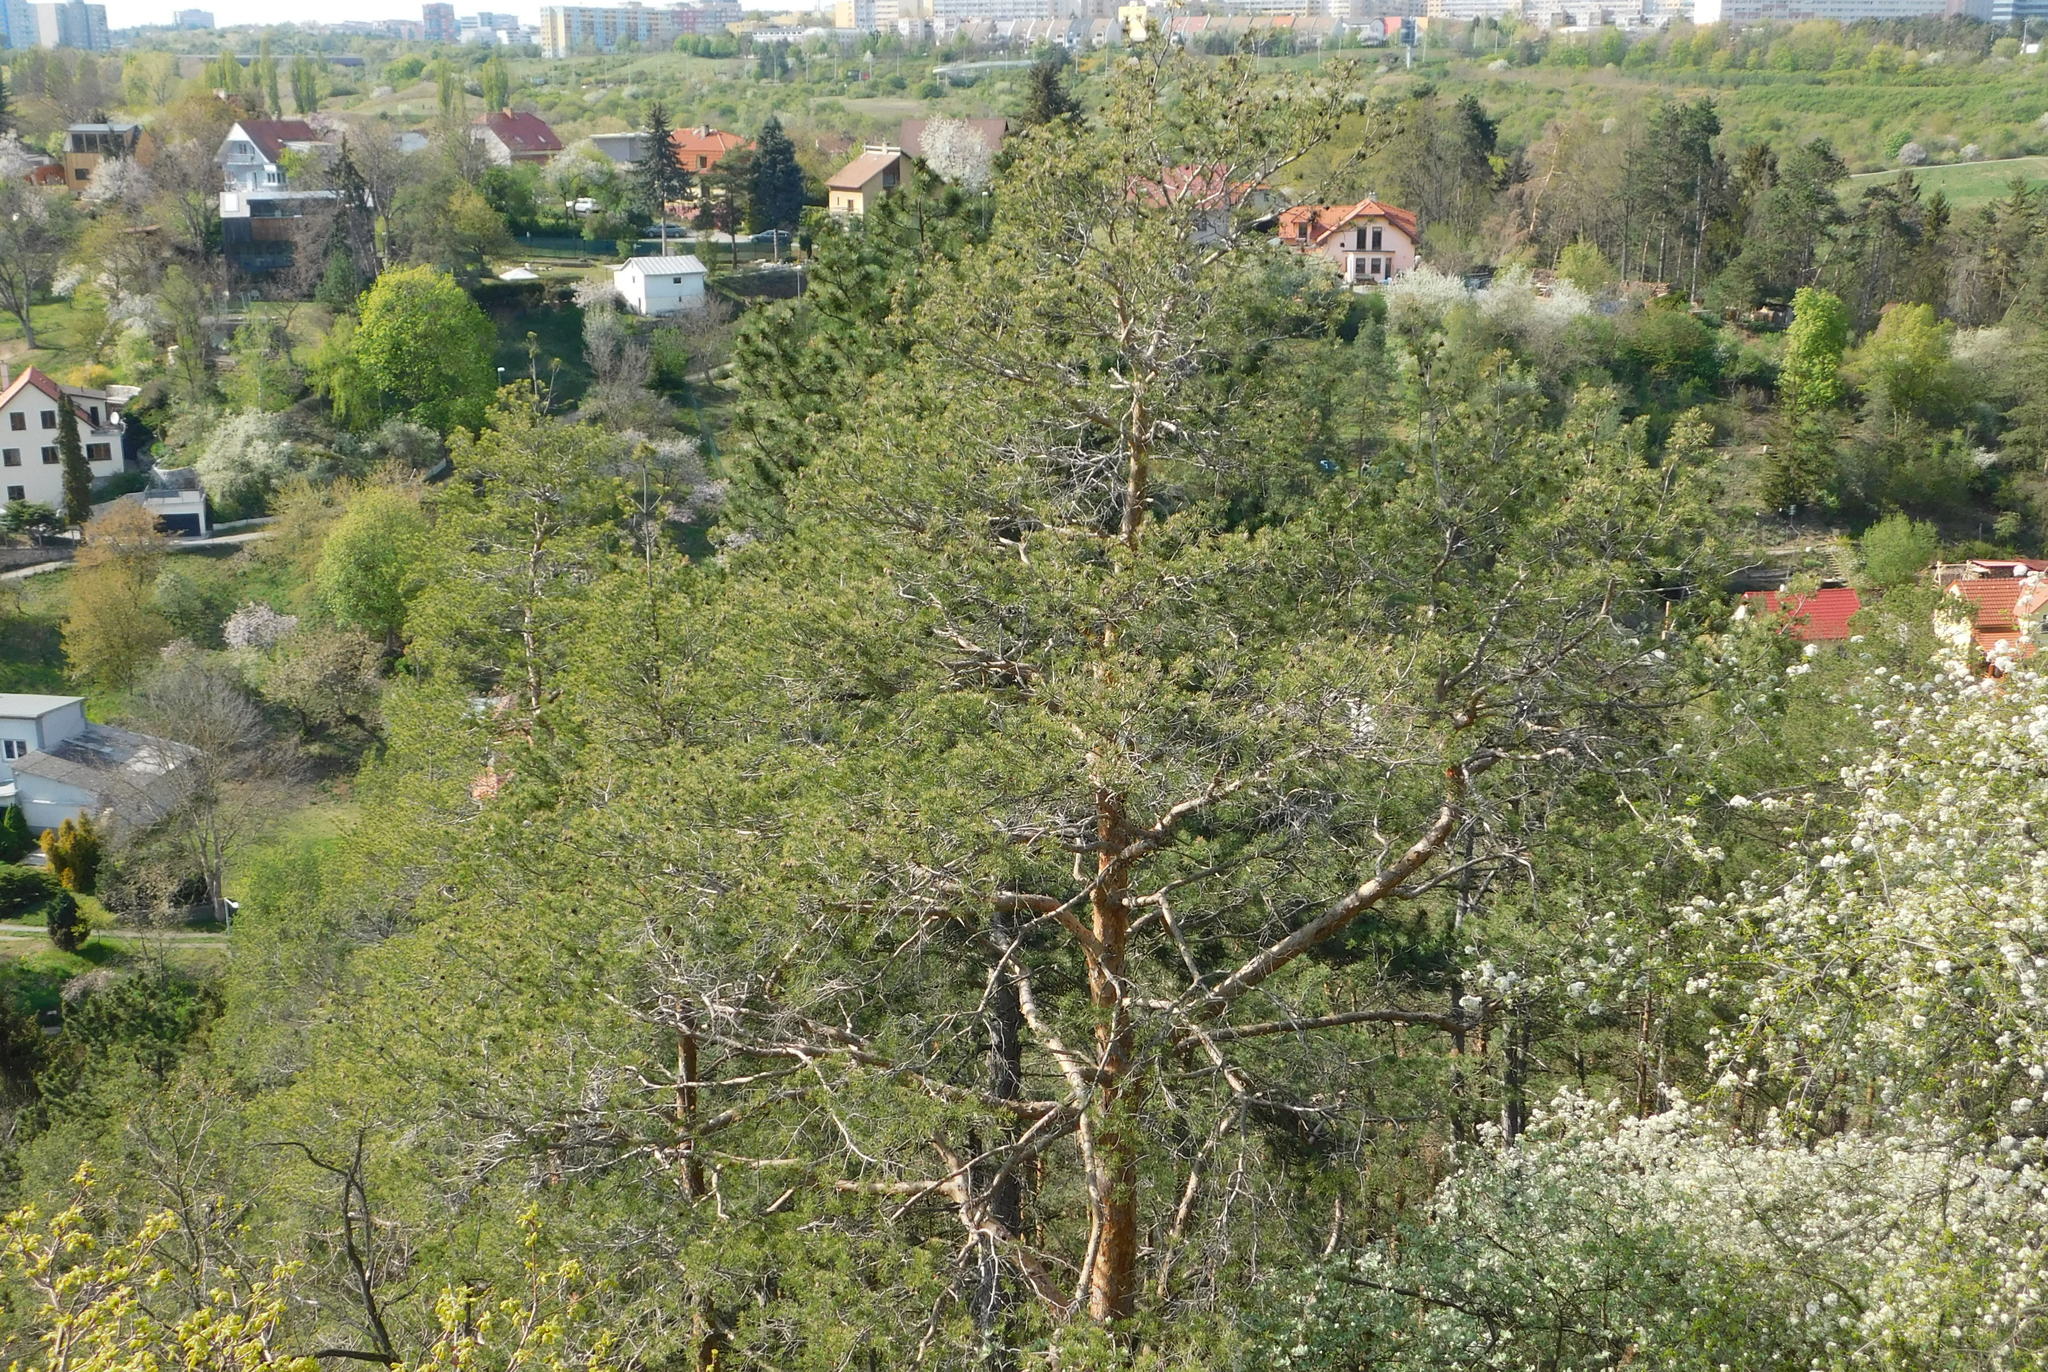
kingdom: Plantae
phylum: Tracheophyta
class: Pinopsida
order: Pinales
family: Pinaceae
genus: Pinus
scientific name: Pinus sylvestris
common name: Scots pine
